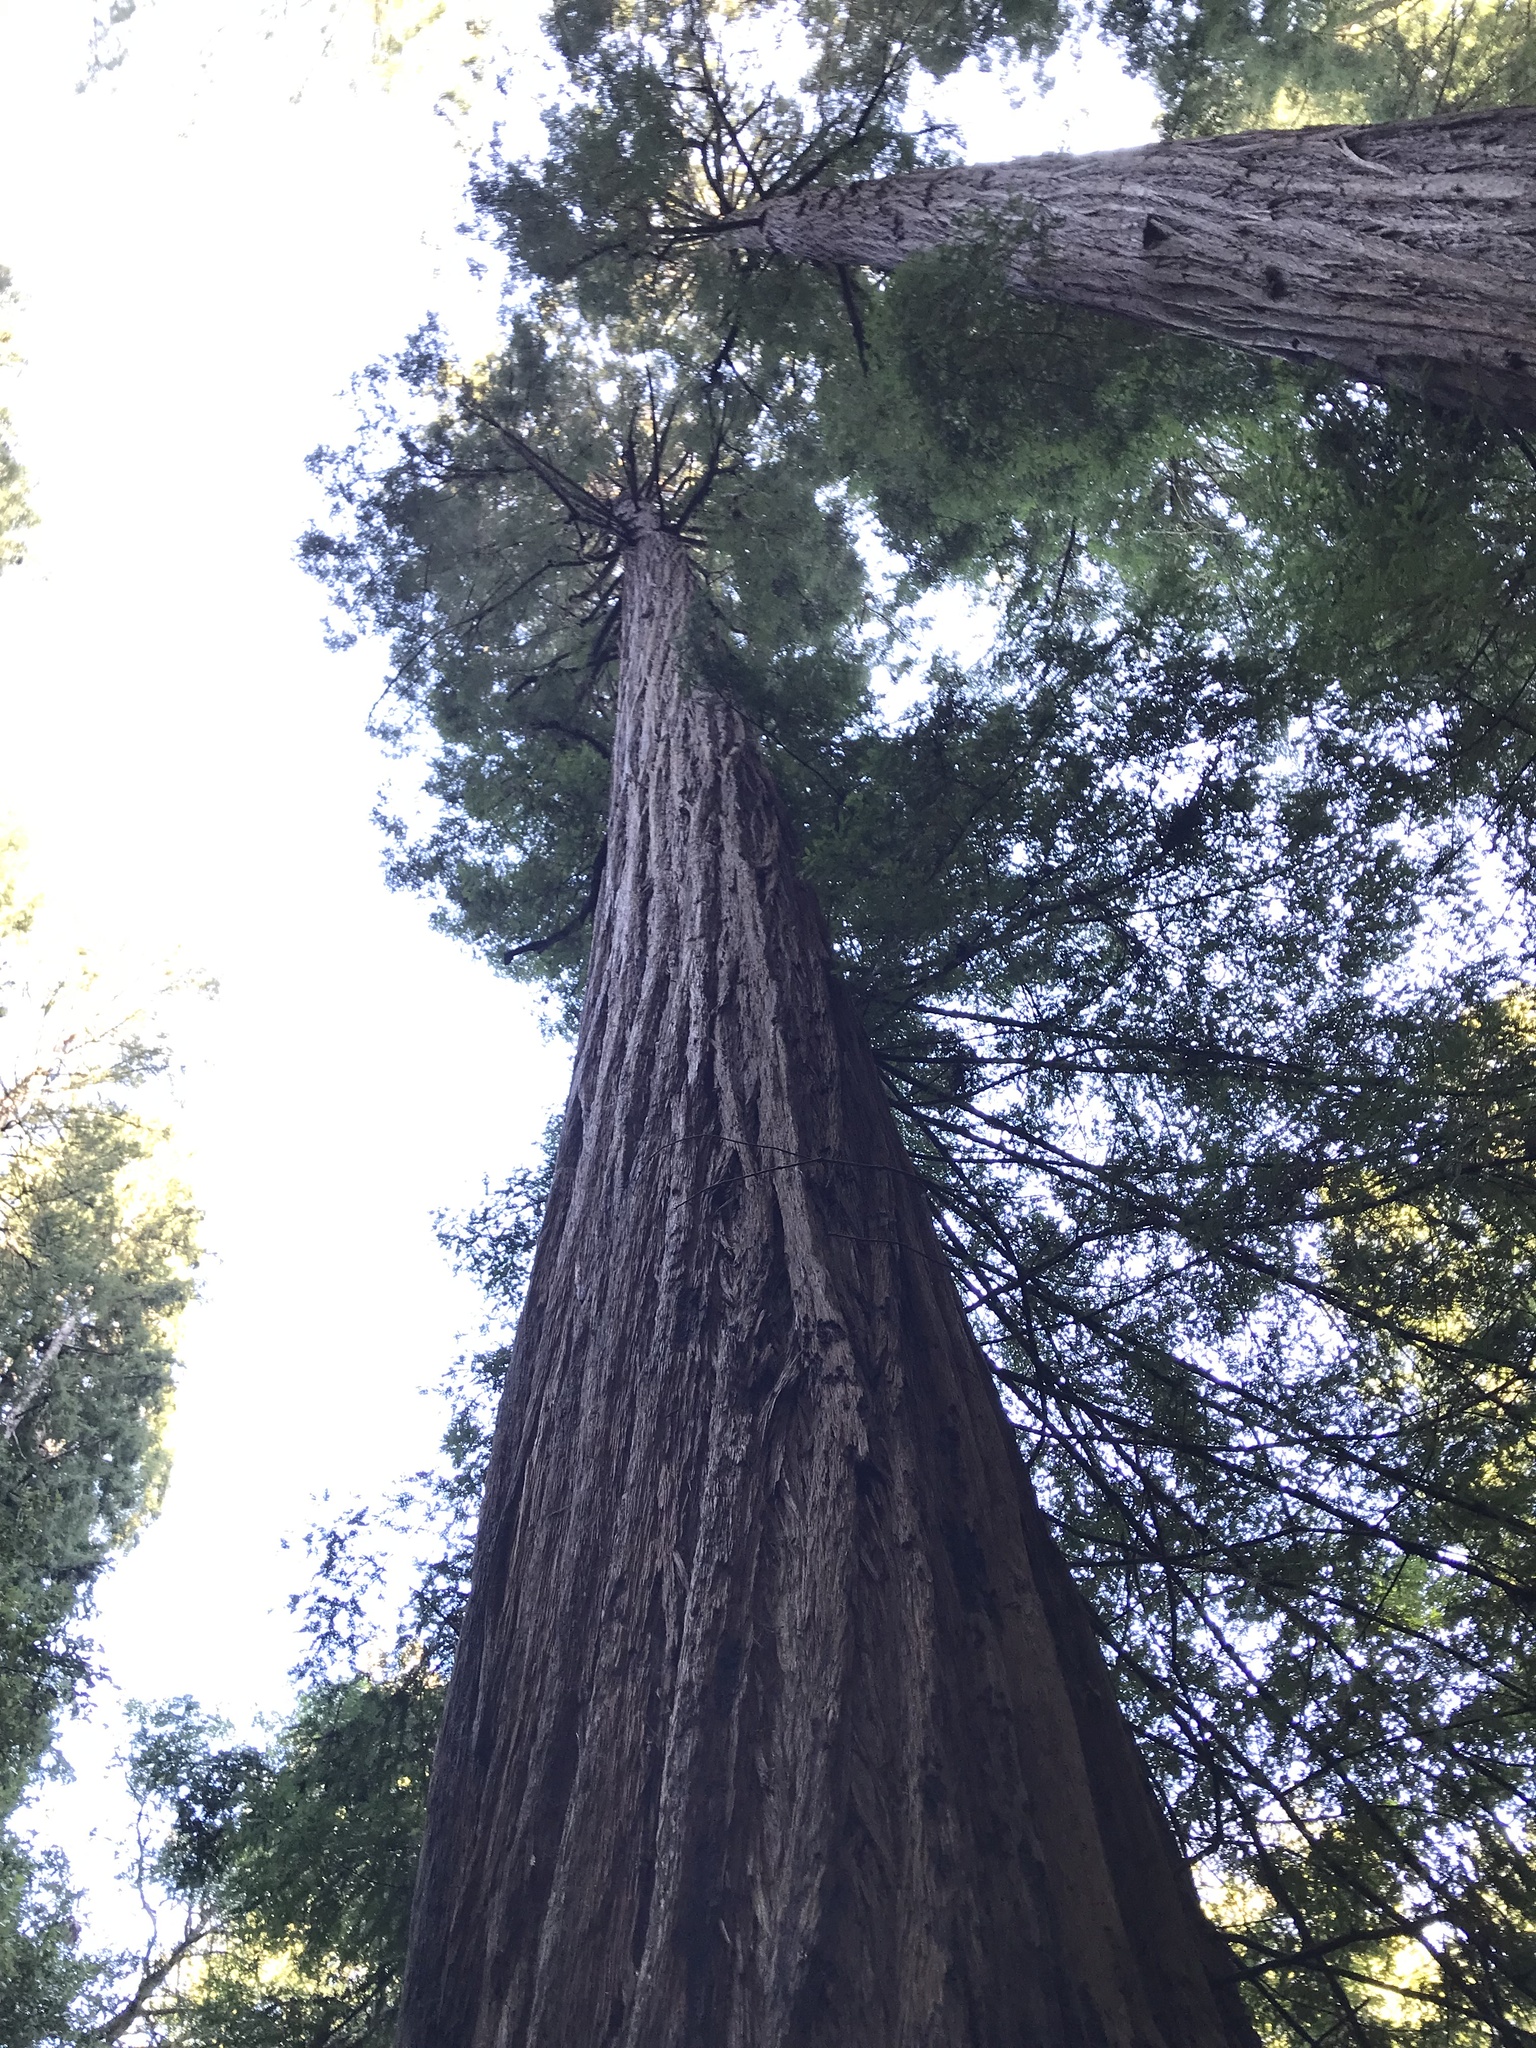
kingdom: Plantae
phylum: Tracheophyta
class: Pinopsida
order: Pinales
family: Cupressaceae
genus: Sequoia
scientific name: Sequoia sempervirens
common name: Coast redwood
